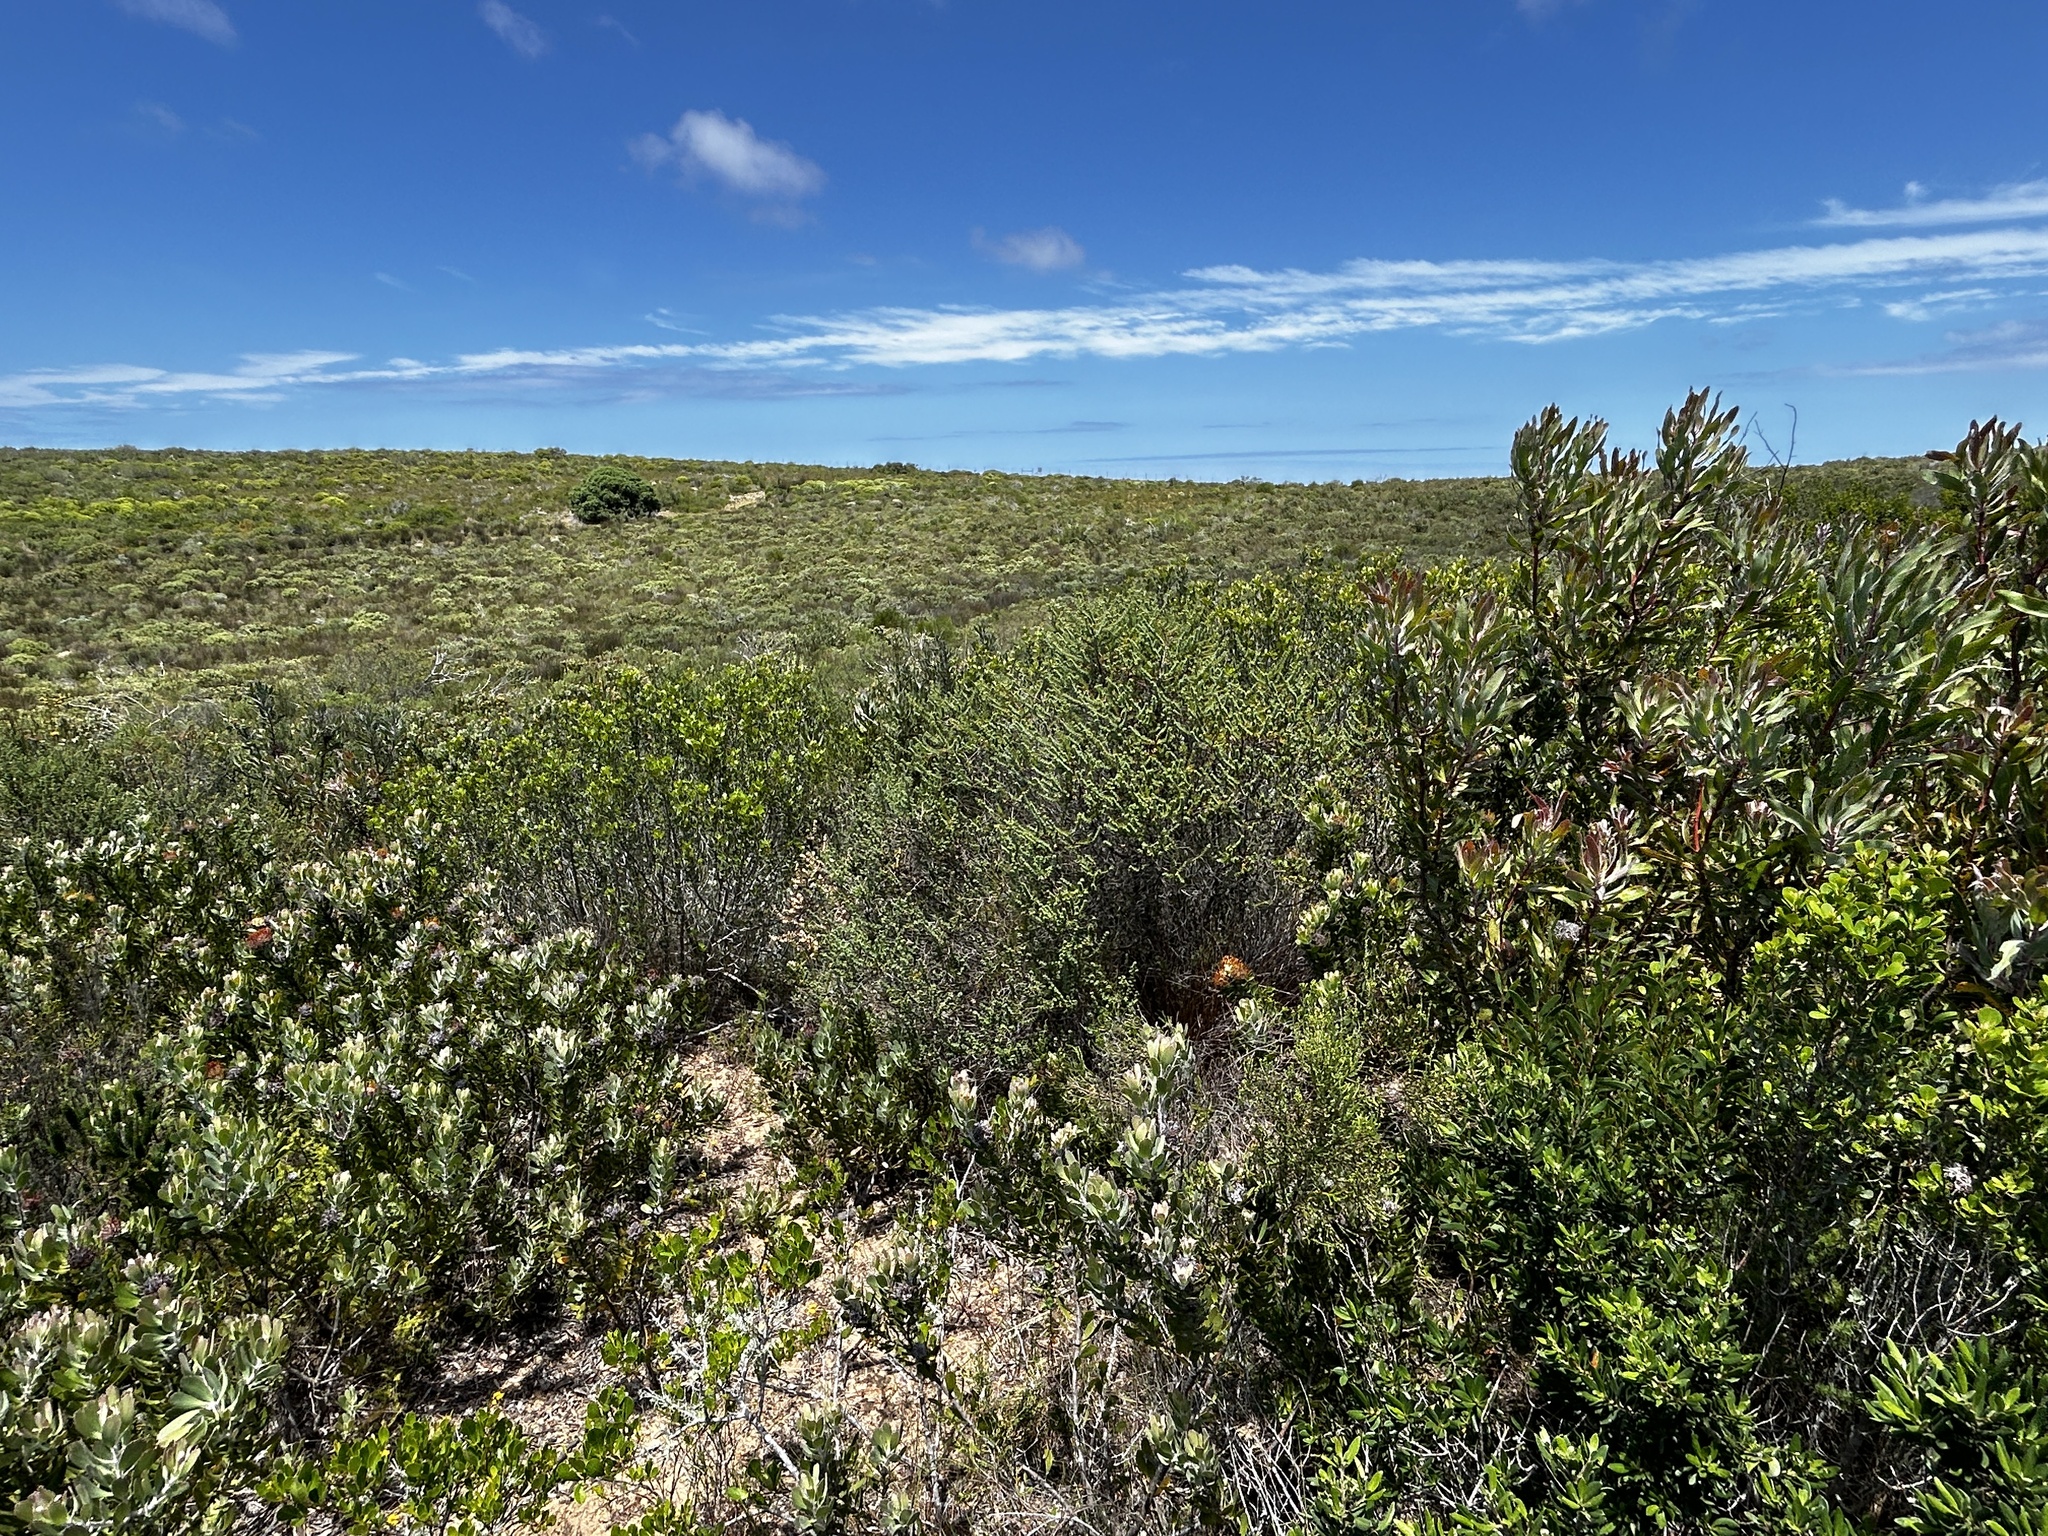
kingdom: Plantae
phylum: Tracheophyta
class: Magnoliopsida
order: Caryophyllales
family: Aizoaceae
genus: Carpobrotus
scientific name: Carpobrotus muirii
